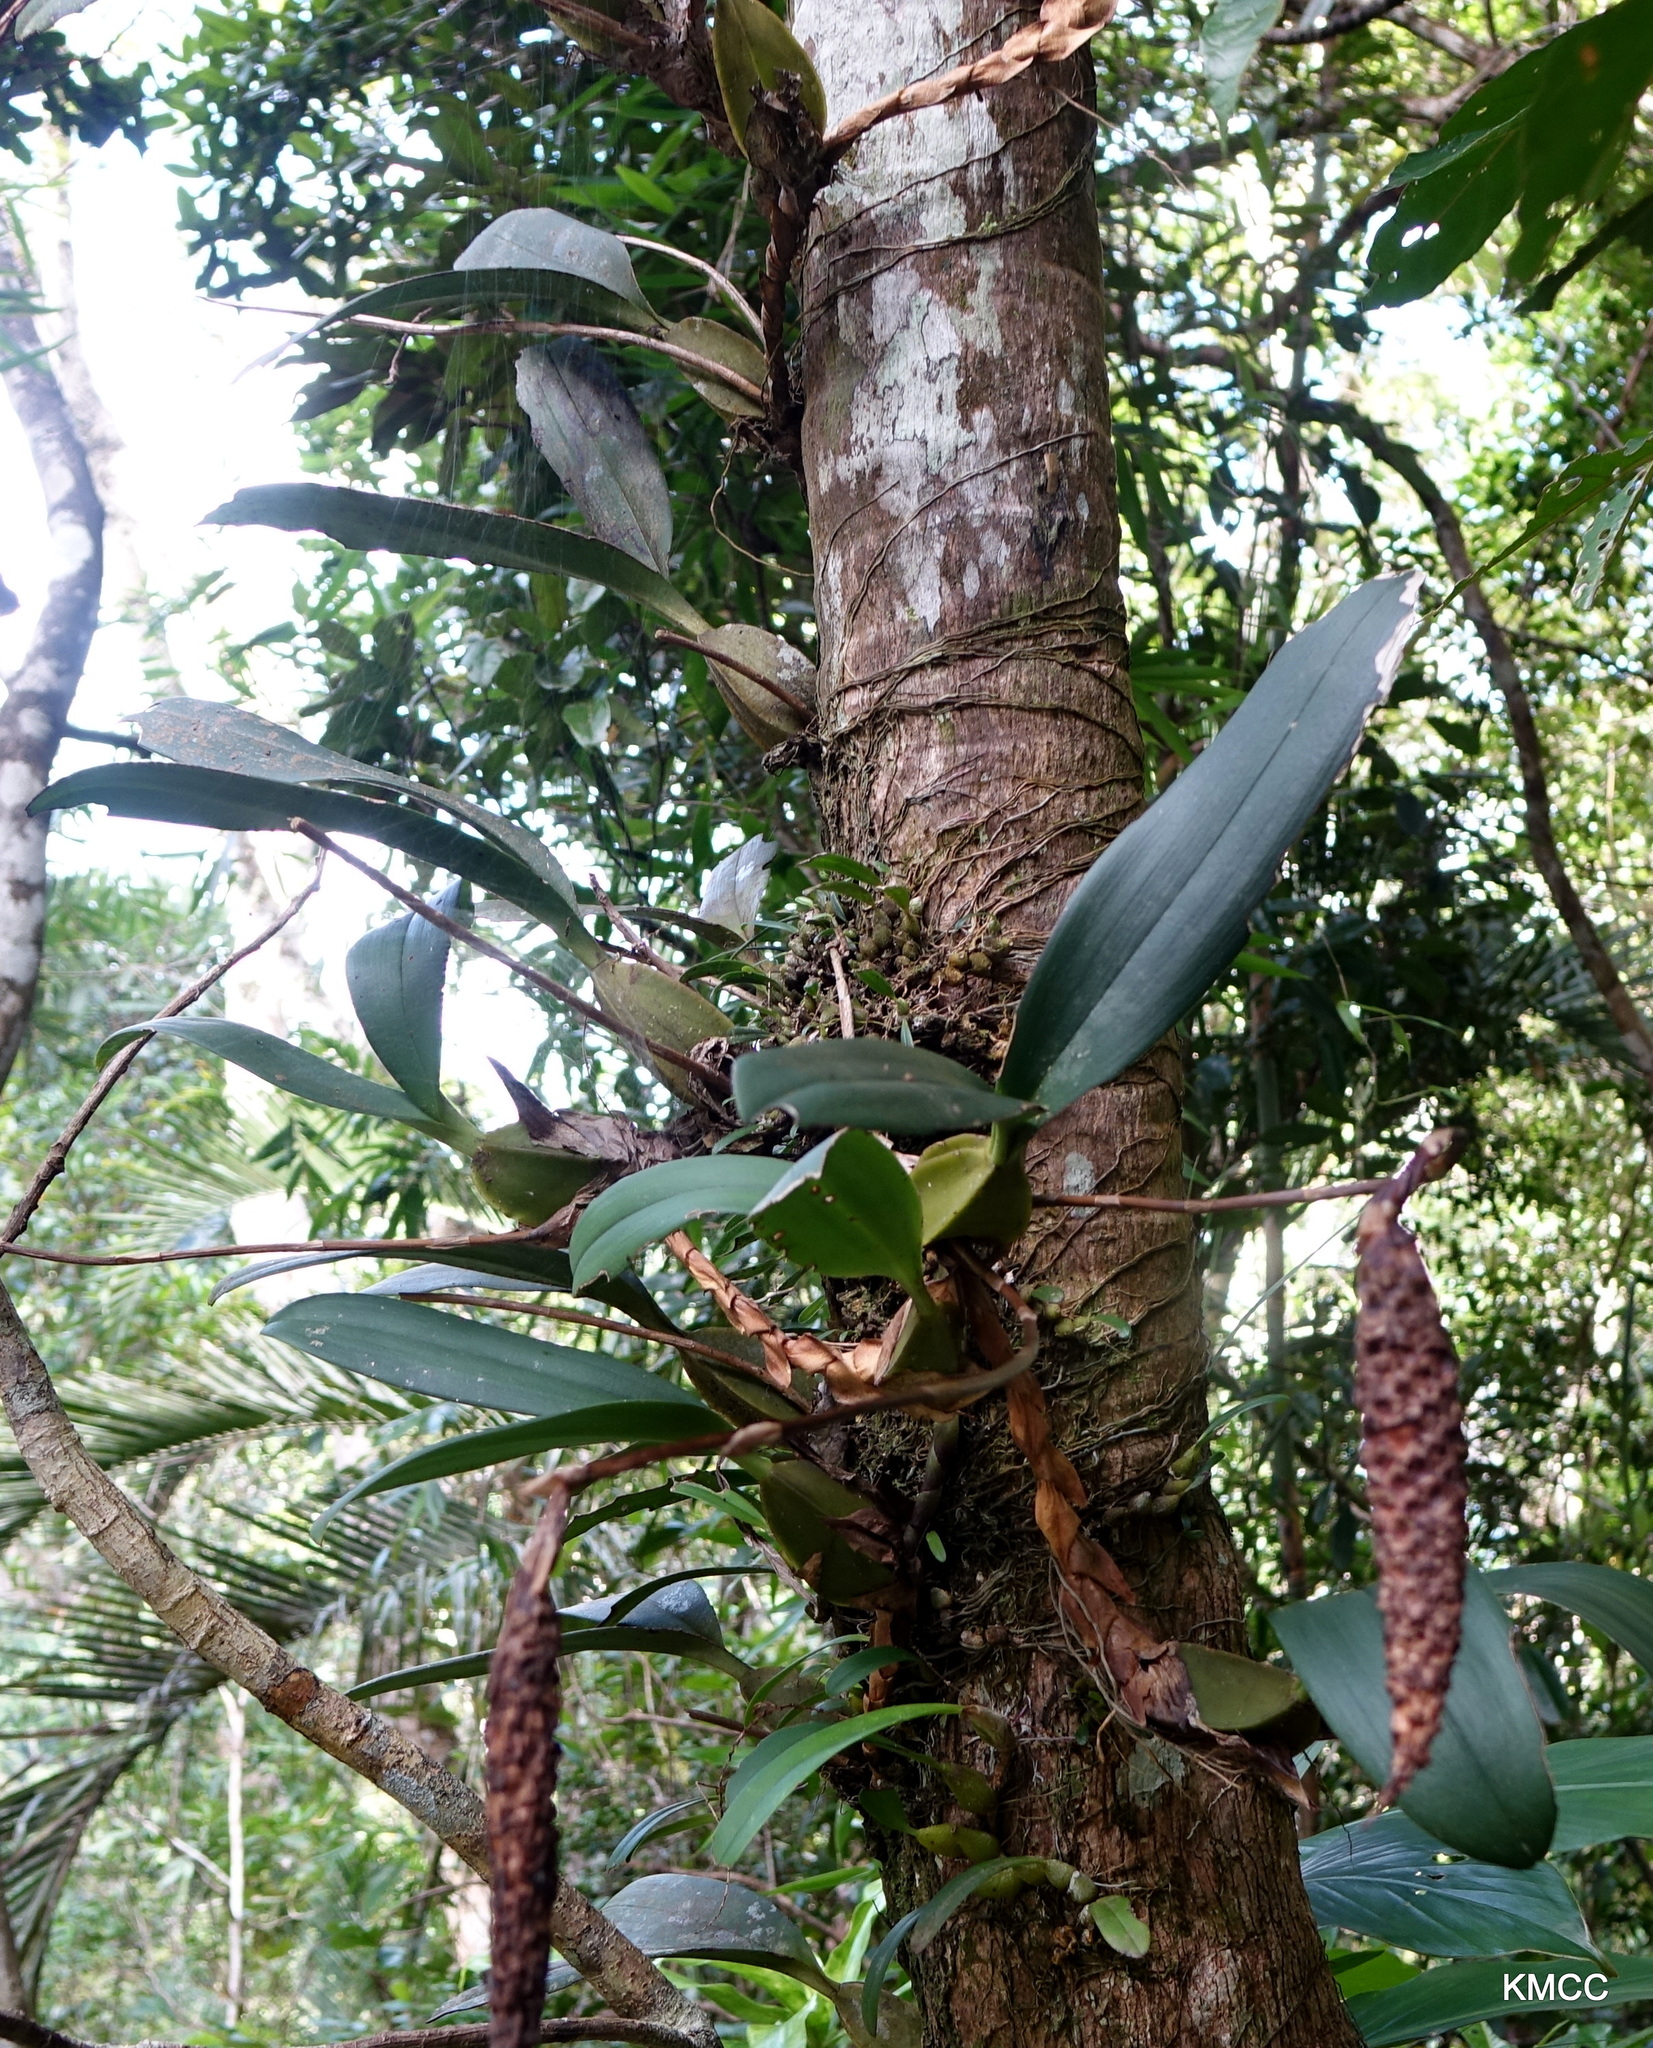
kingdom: Plantae
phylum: Tracheophyta
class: Liliopsida
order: Asparagales
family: Orchidaceae
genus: Bulbophyllum
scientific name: Bulbophyllum coriophorum
